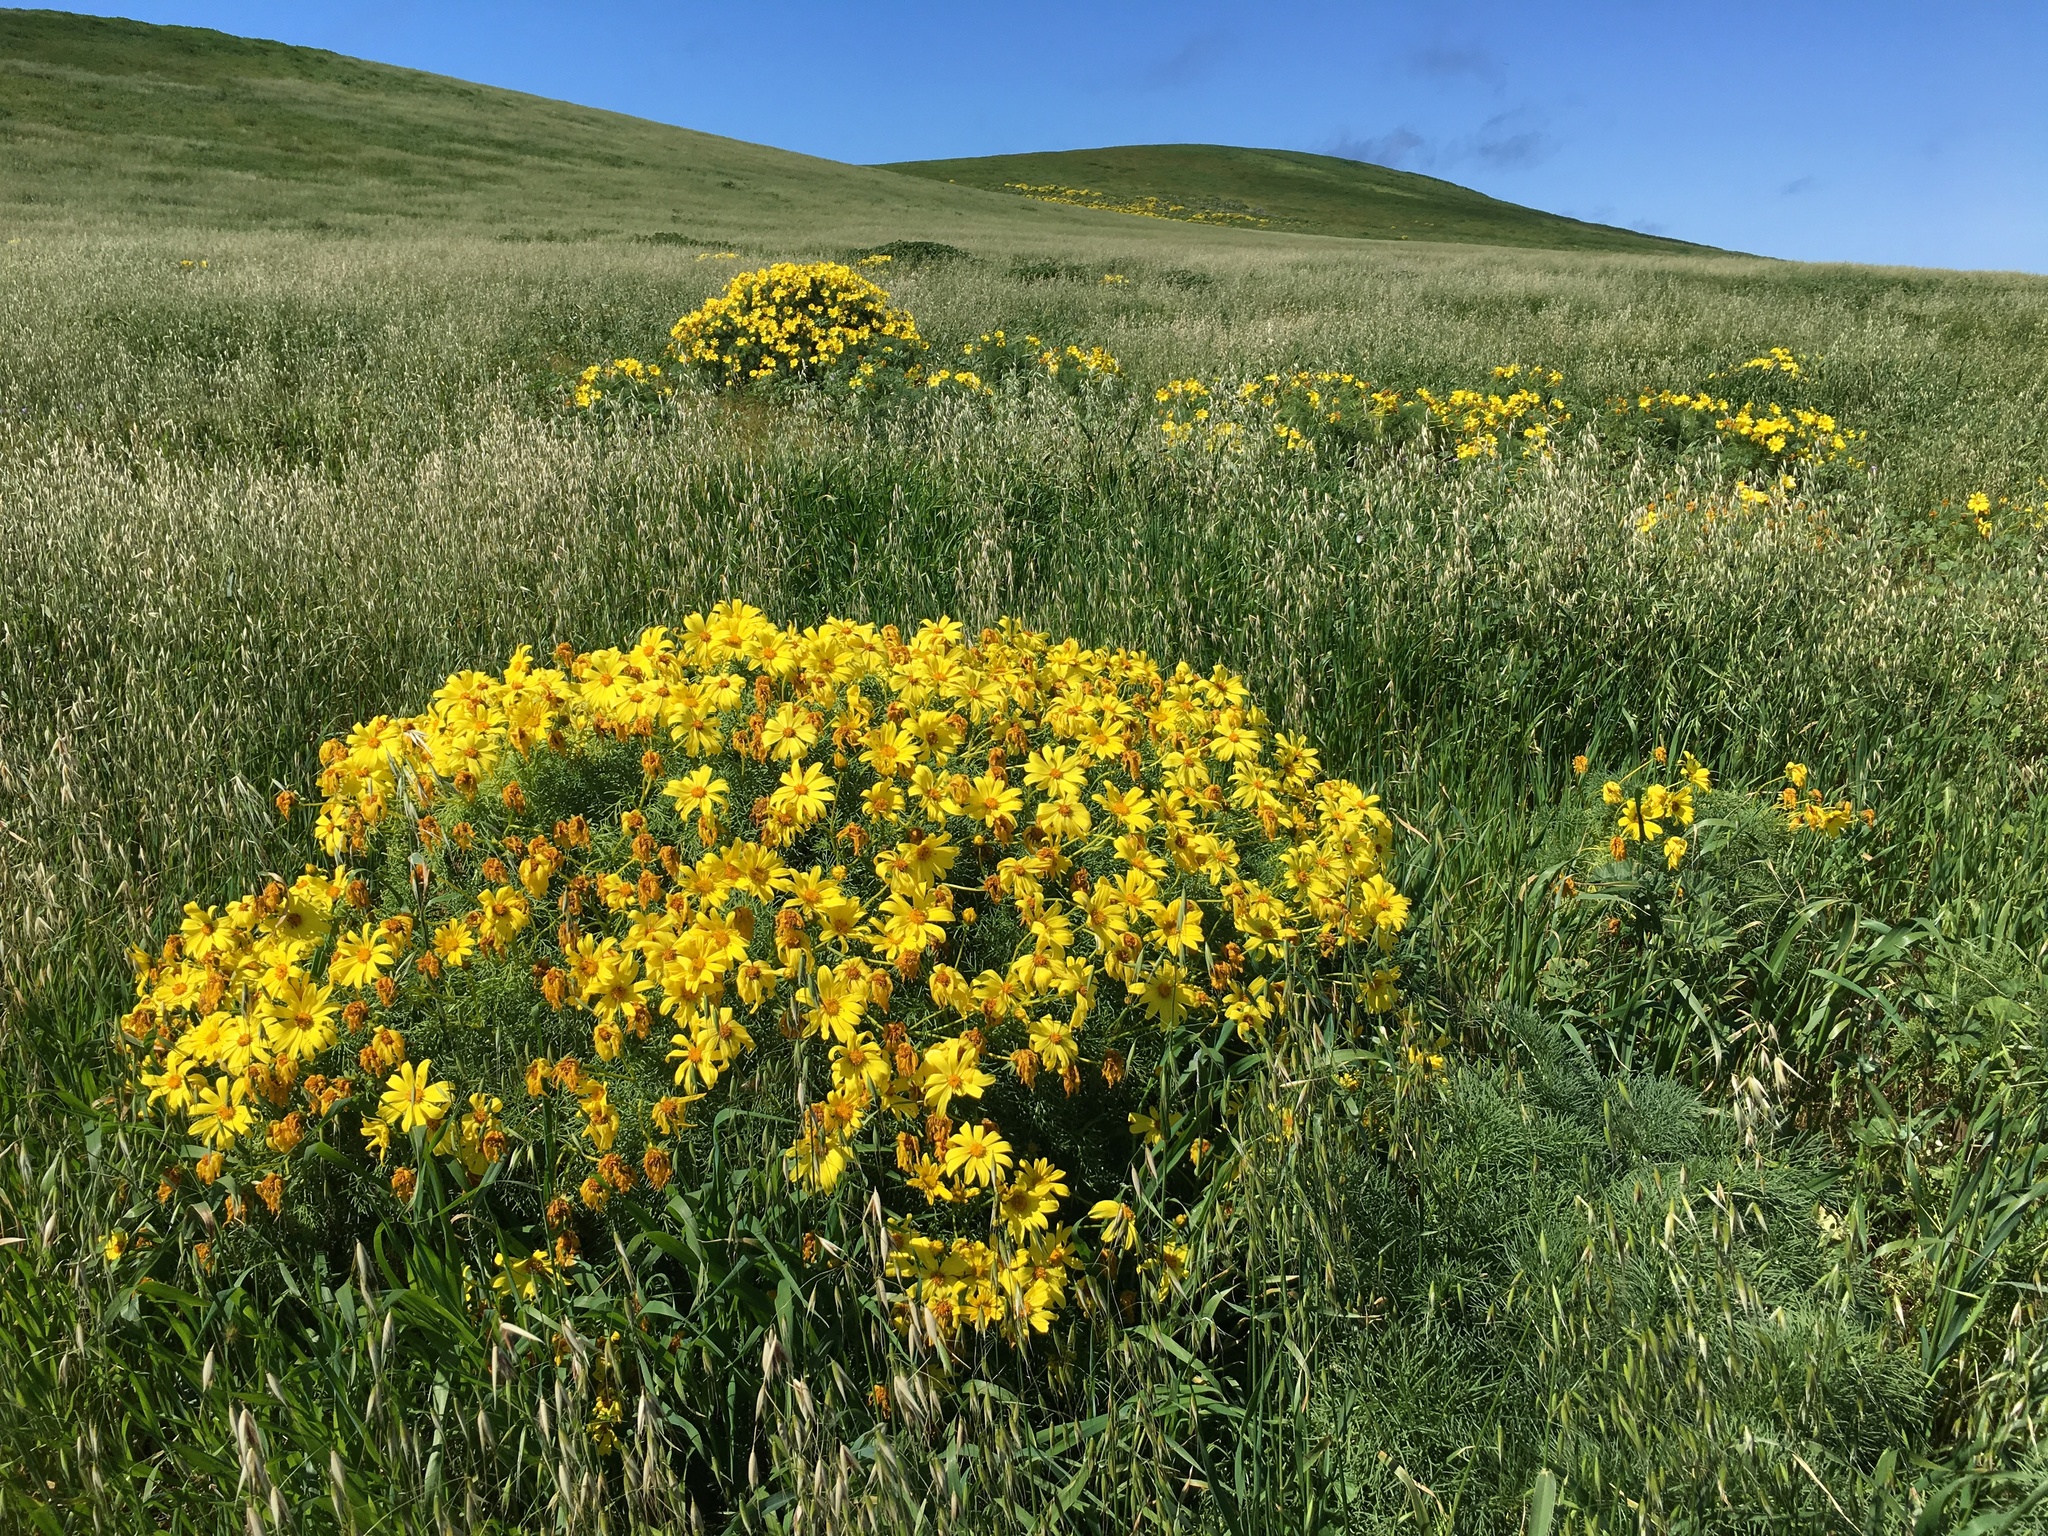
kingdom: Plantae
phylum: Tracheophyta
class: Magnoliopsida
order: Asterales
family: Asteraceae
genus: Coreopsis
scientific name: Coreopsis gigantea
